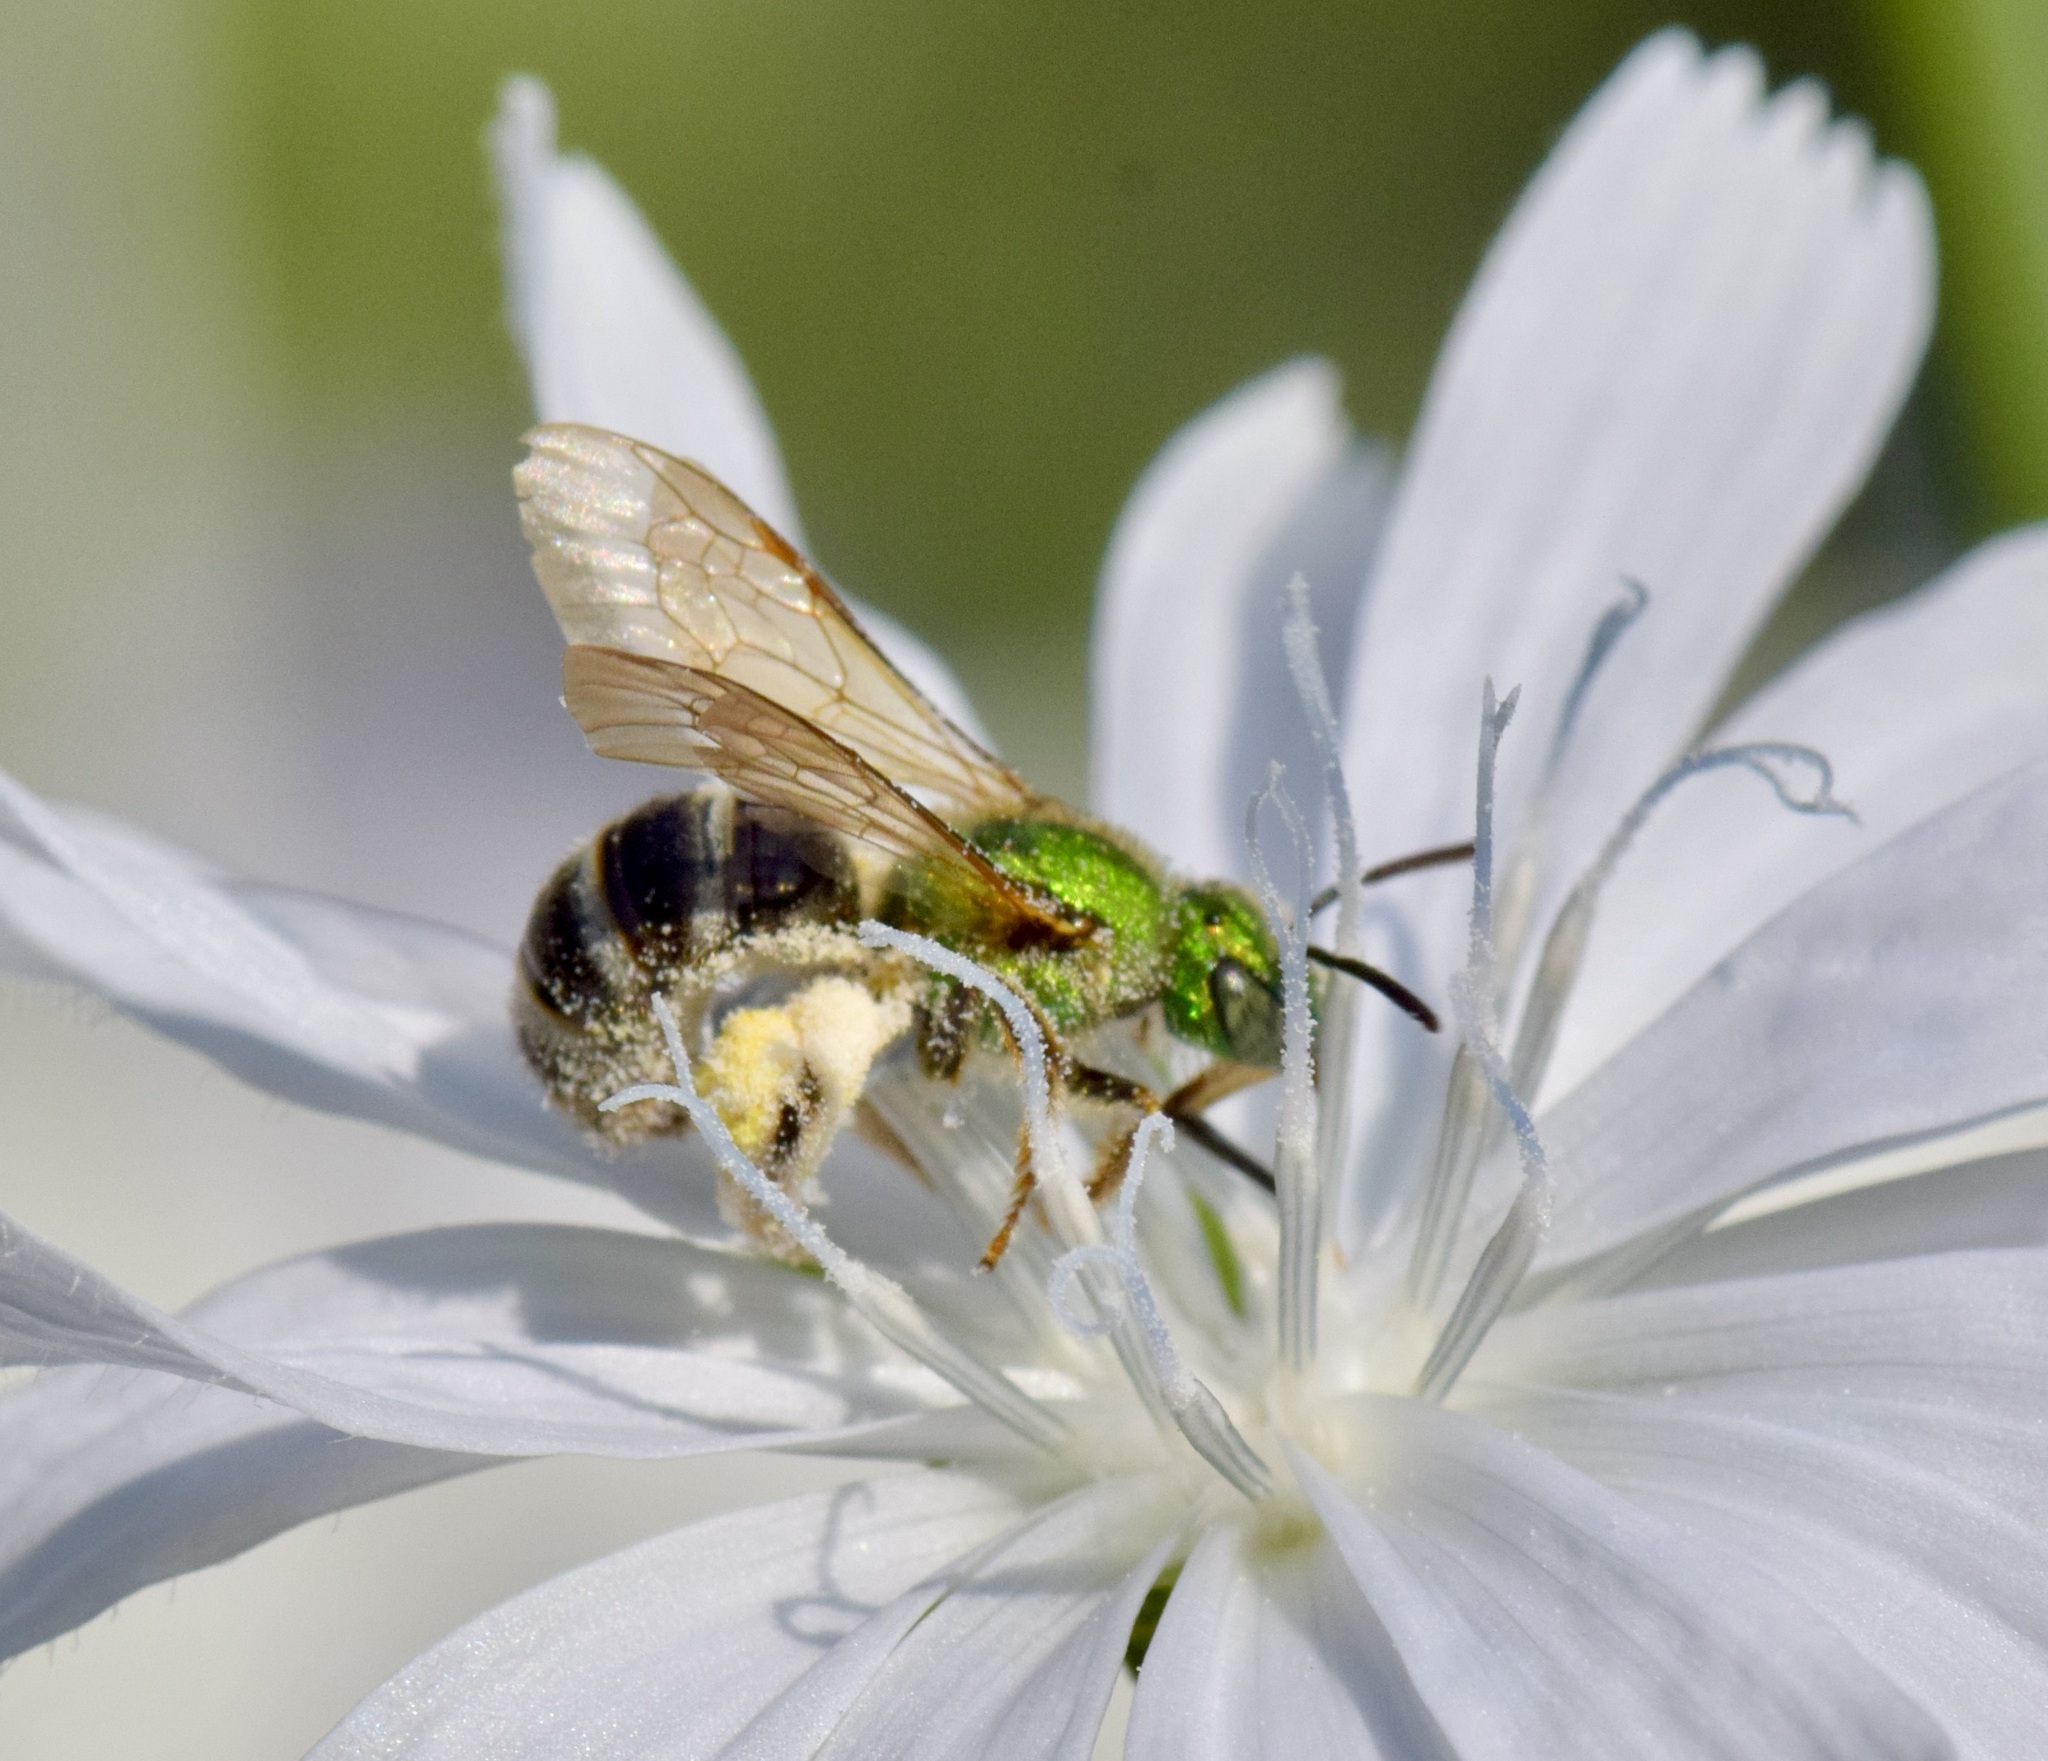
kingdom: Animalia
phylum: Arthropoda
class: Insecta
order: Hymenoptera
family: Halictidae
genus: Agapostemon
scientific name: Agapostemon virescens
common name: Bicolored striped sweat bee
